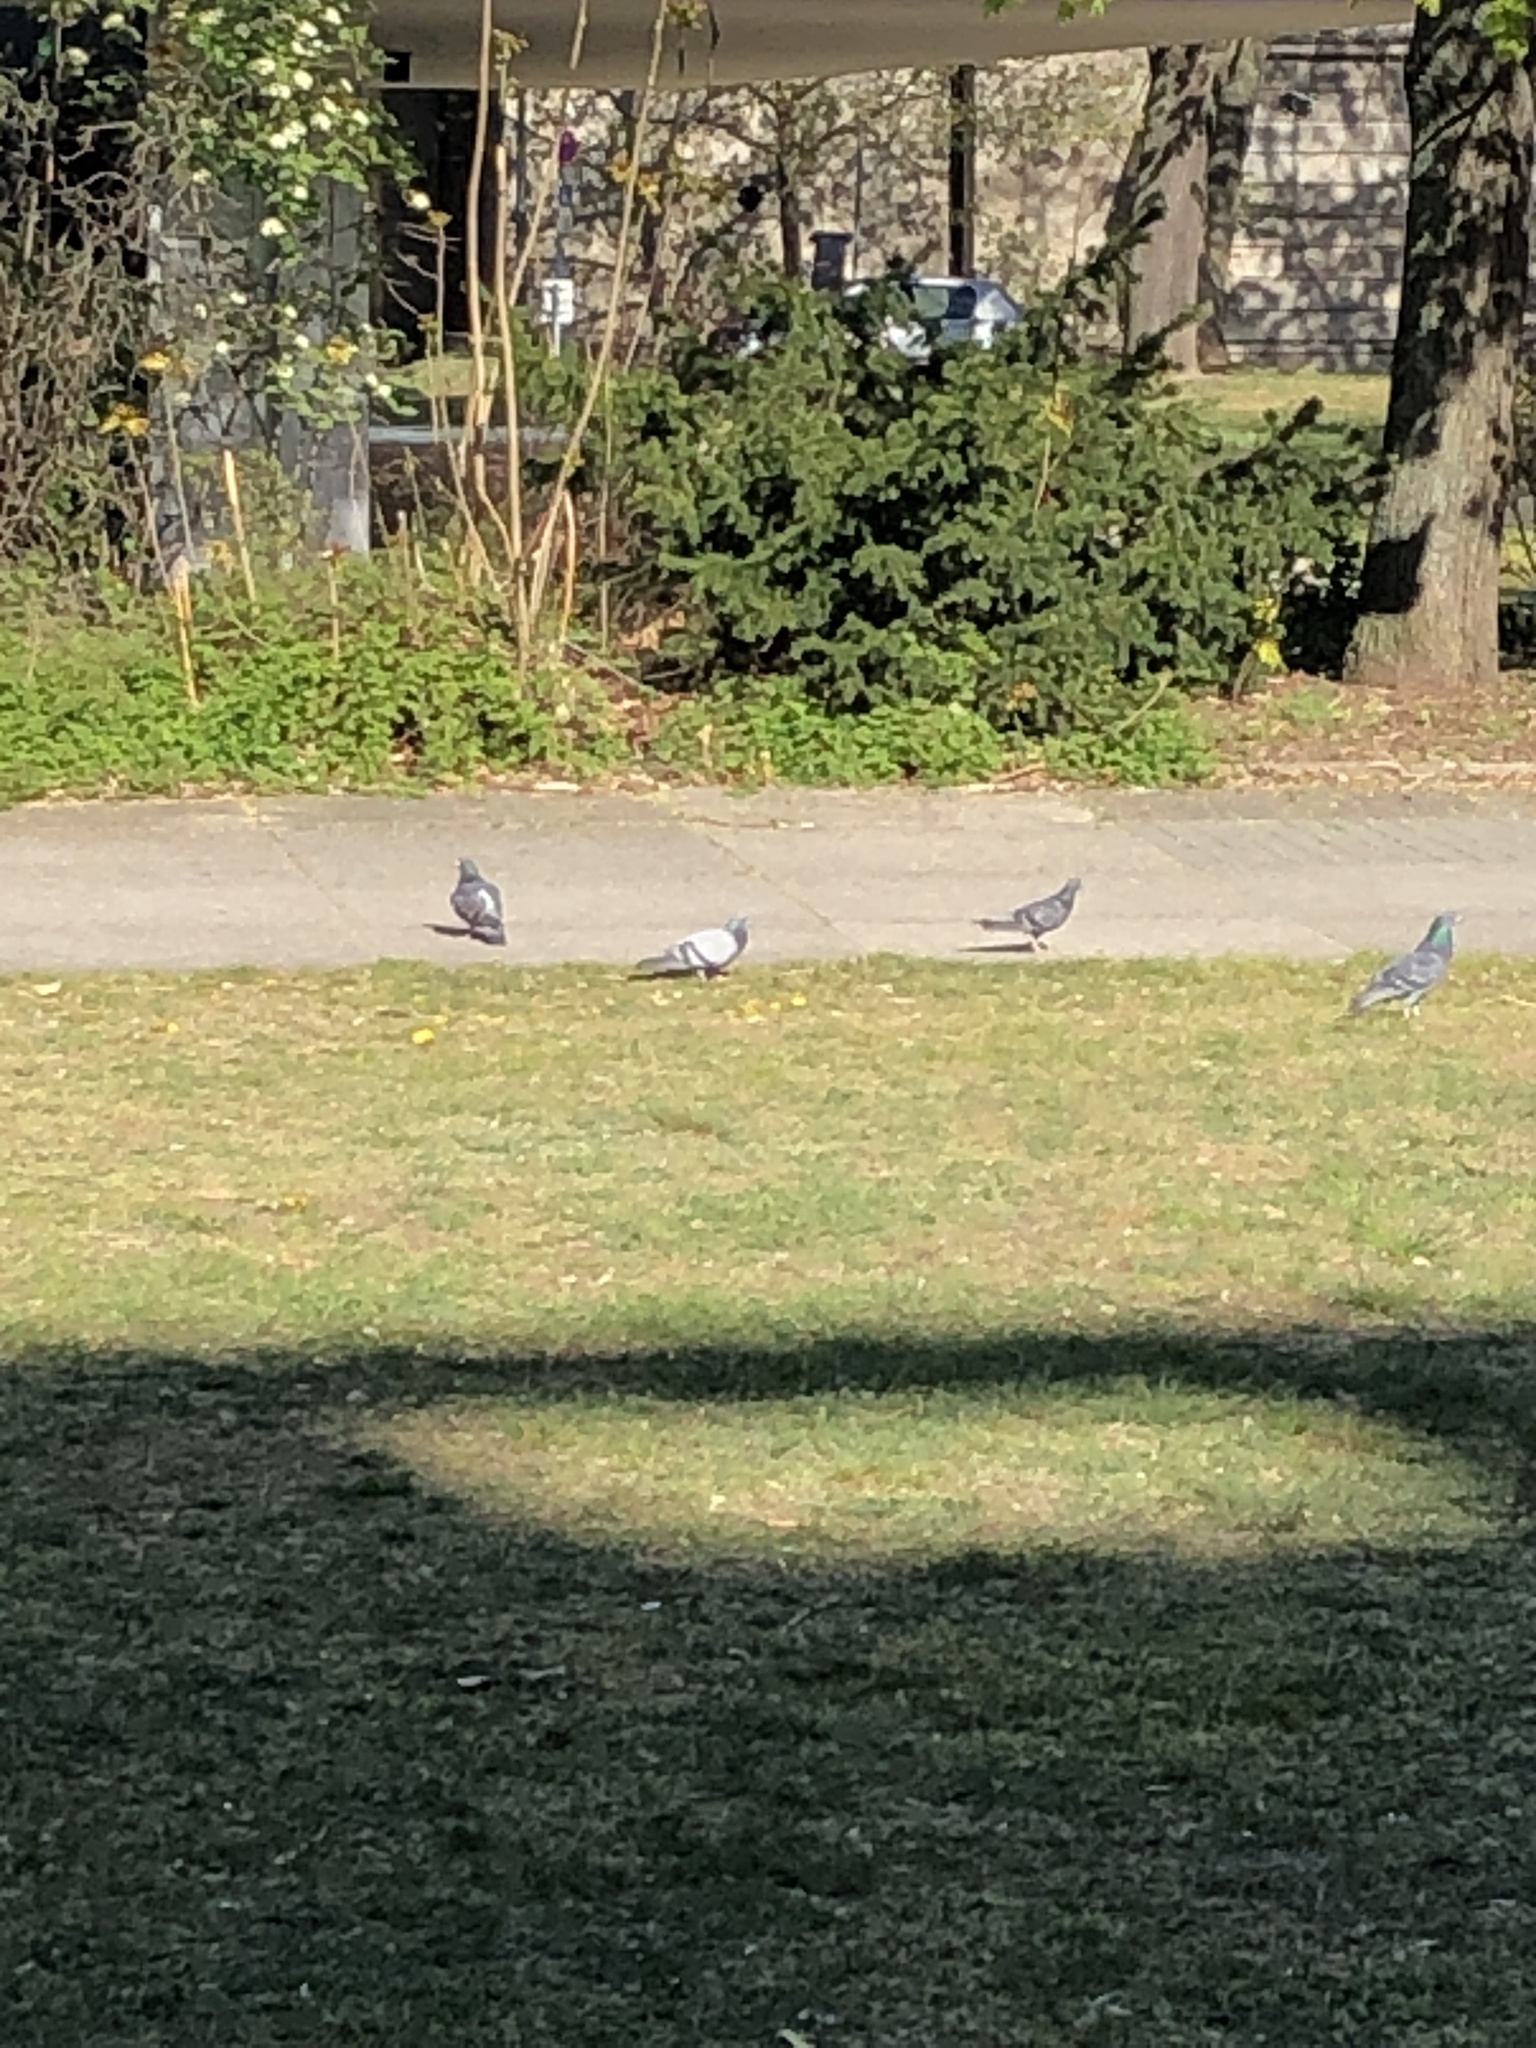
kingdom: Animalia
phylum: Chordata
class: Aves
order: Columbiformes
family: Columbidae
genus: Columba
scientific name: Columba livia
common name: Rock pigeon
